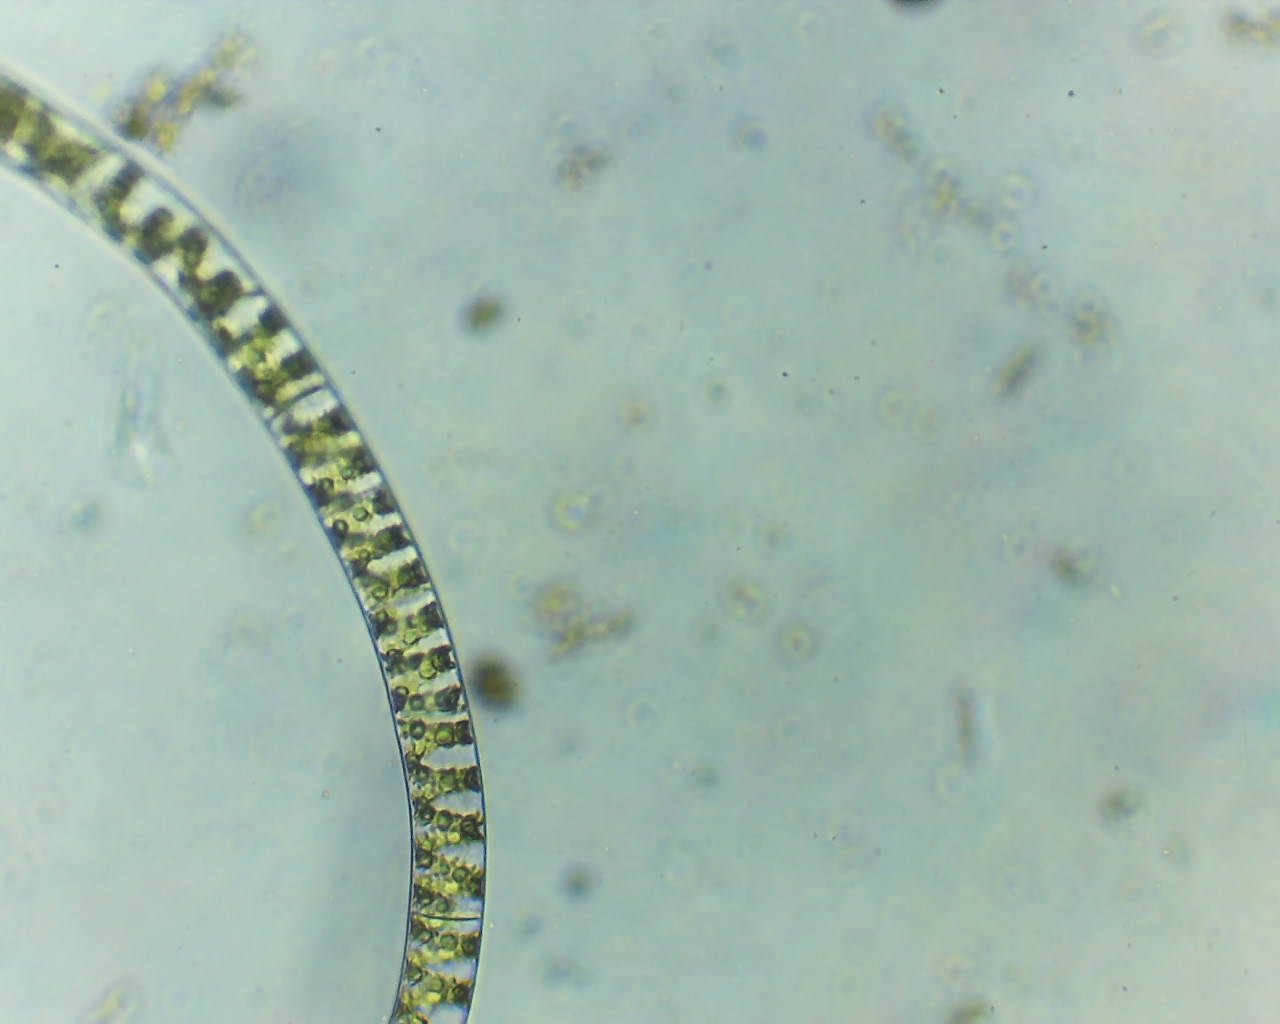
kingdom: Plantae
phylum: Charophyta
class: Zygnematophyceae
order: Zygnematales
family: Zygnemataceae
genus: Spirogyra
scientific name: Spirogyra
